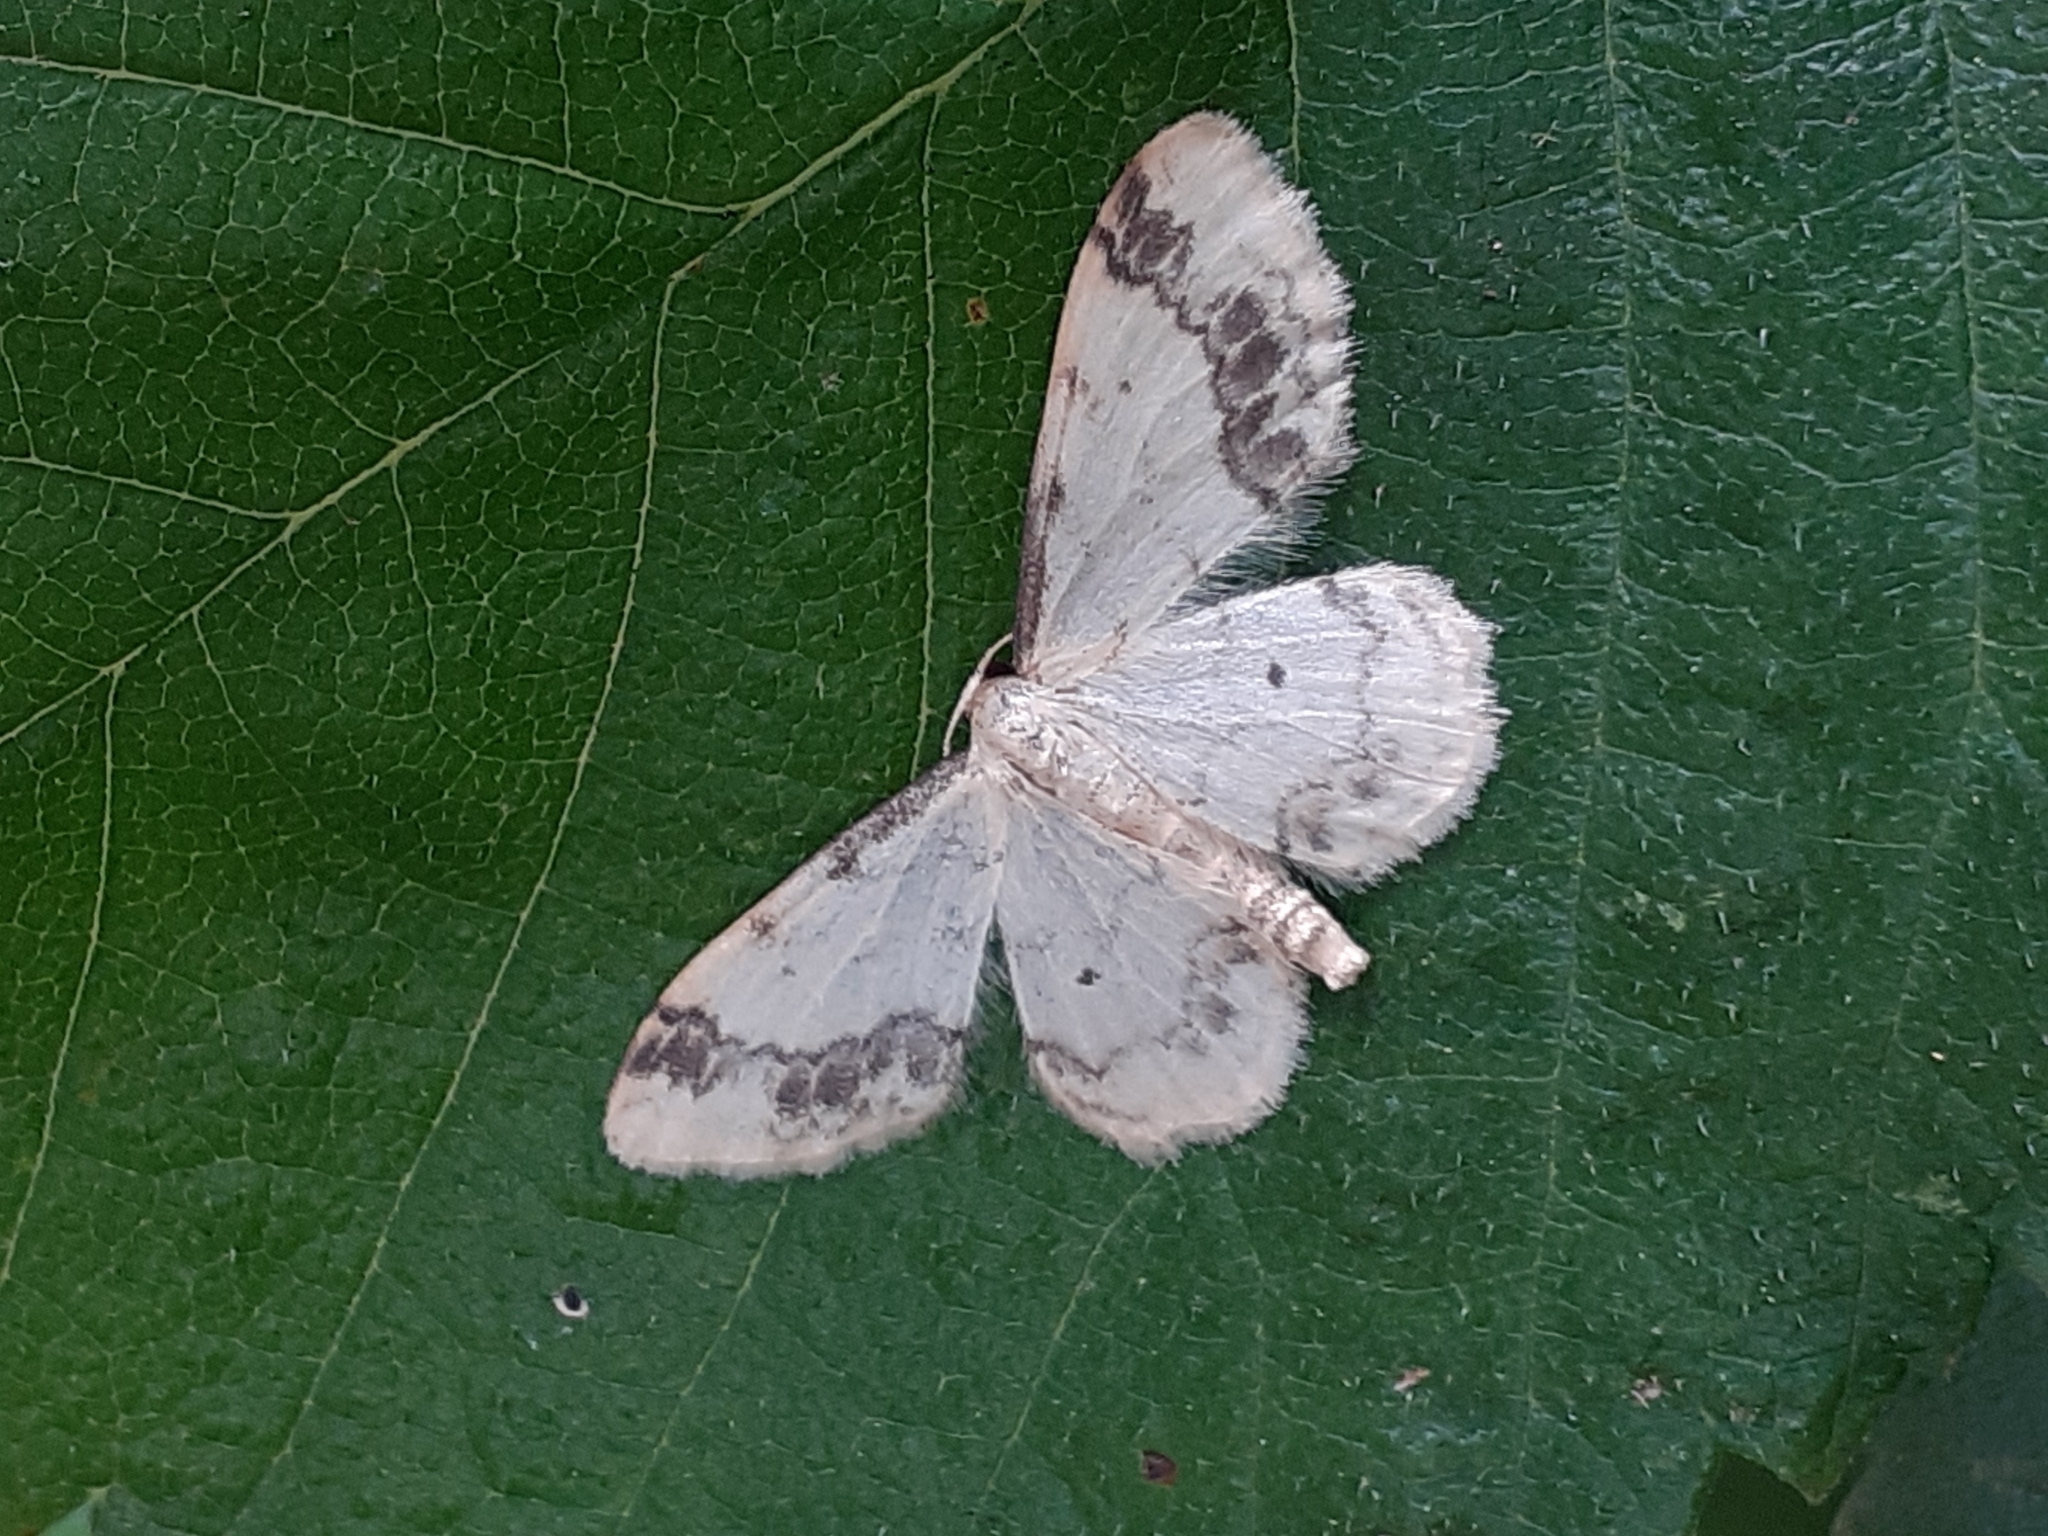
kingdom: Animalia
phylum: Arthropoda
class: Insecta
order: Lepidoptera
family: Geometridae
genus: Idaea
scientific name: Idaea trigeminata
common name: Treble brown spot
